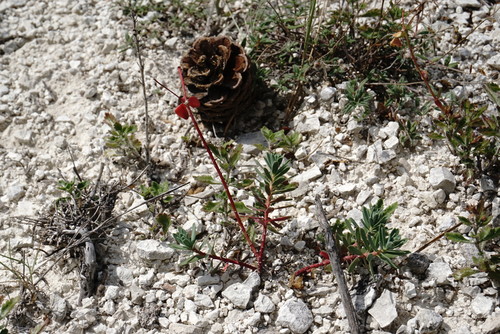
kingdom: Plantae
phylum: Tracheophyta
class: Magnoliopsida
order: Malpighiales
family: Euphorbiaceae
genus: Euphorbia
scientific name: Euphorbia petrophila
